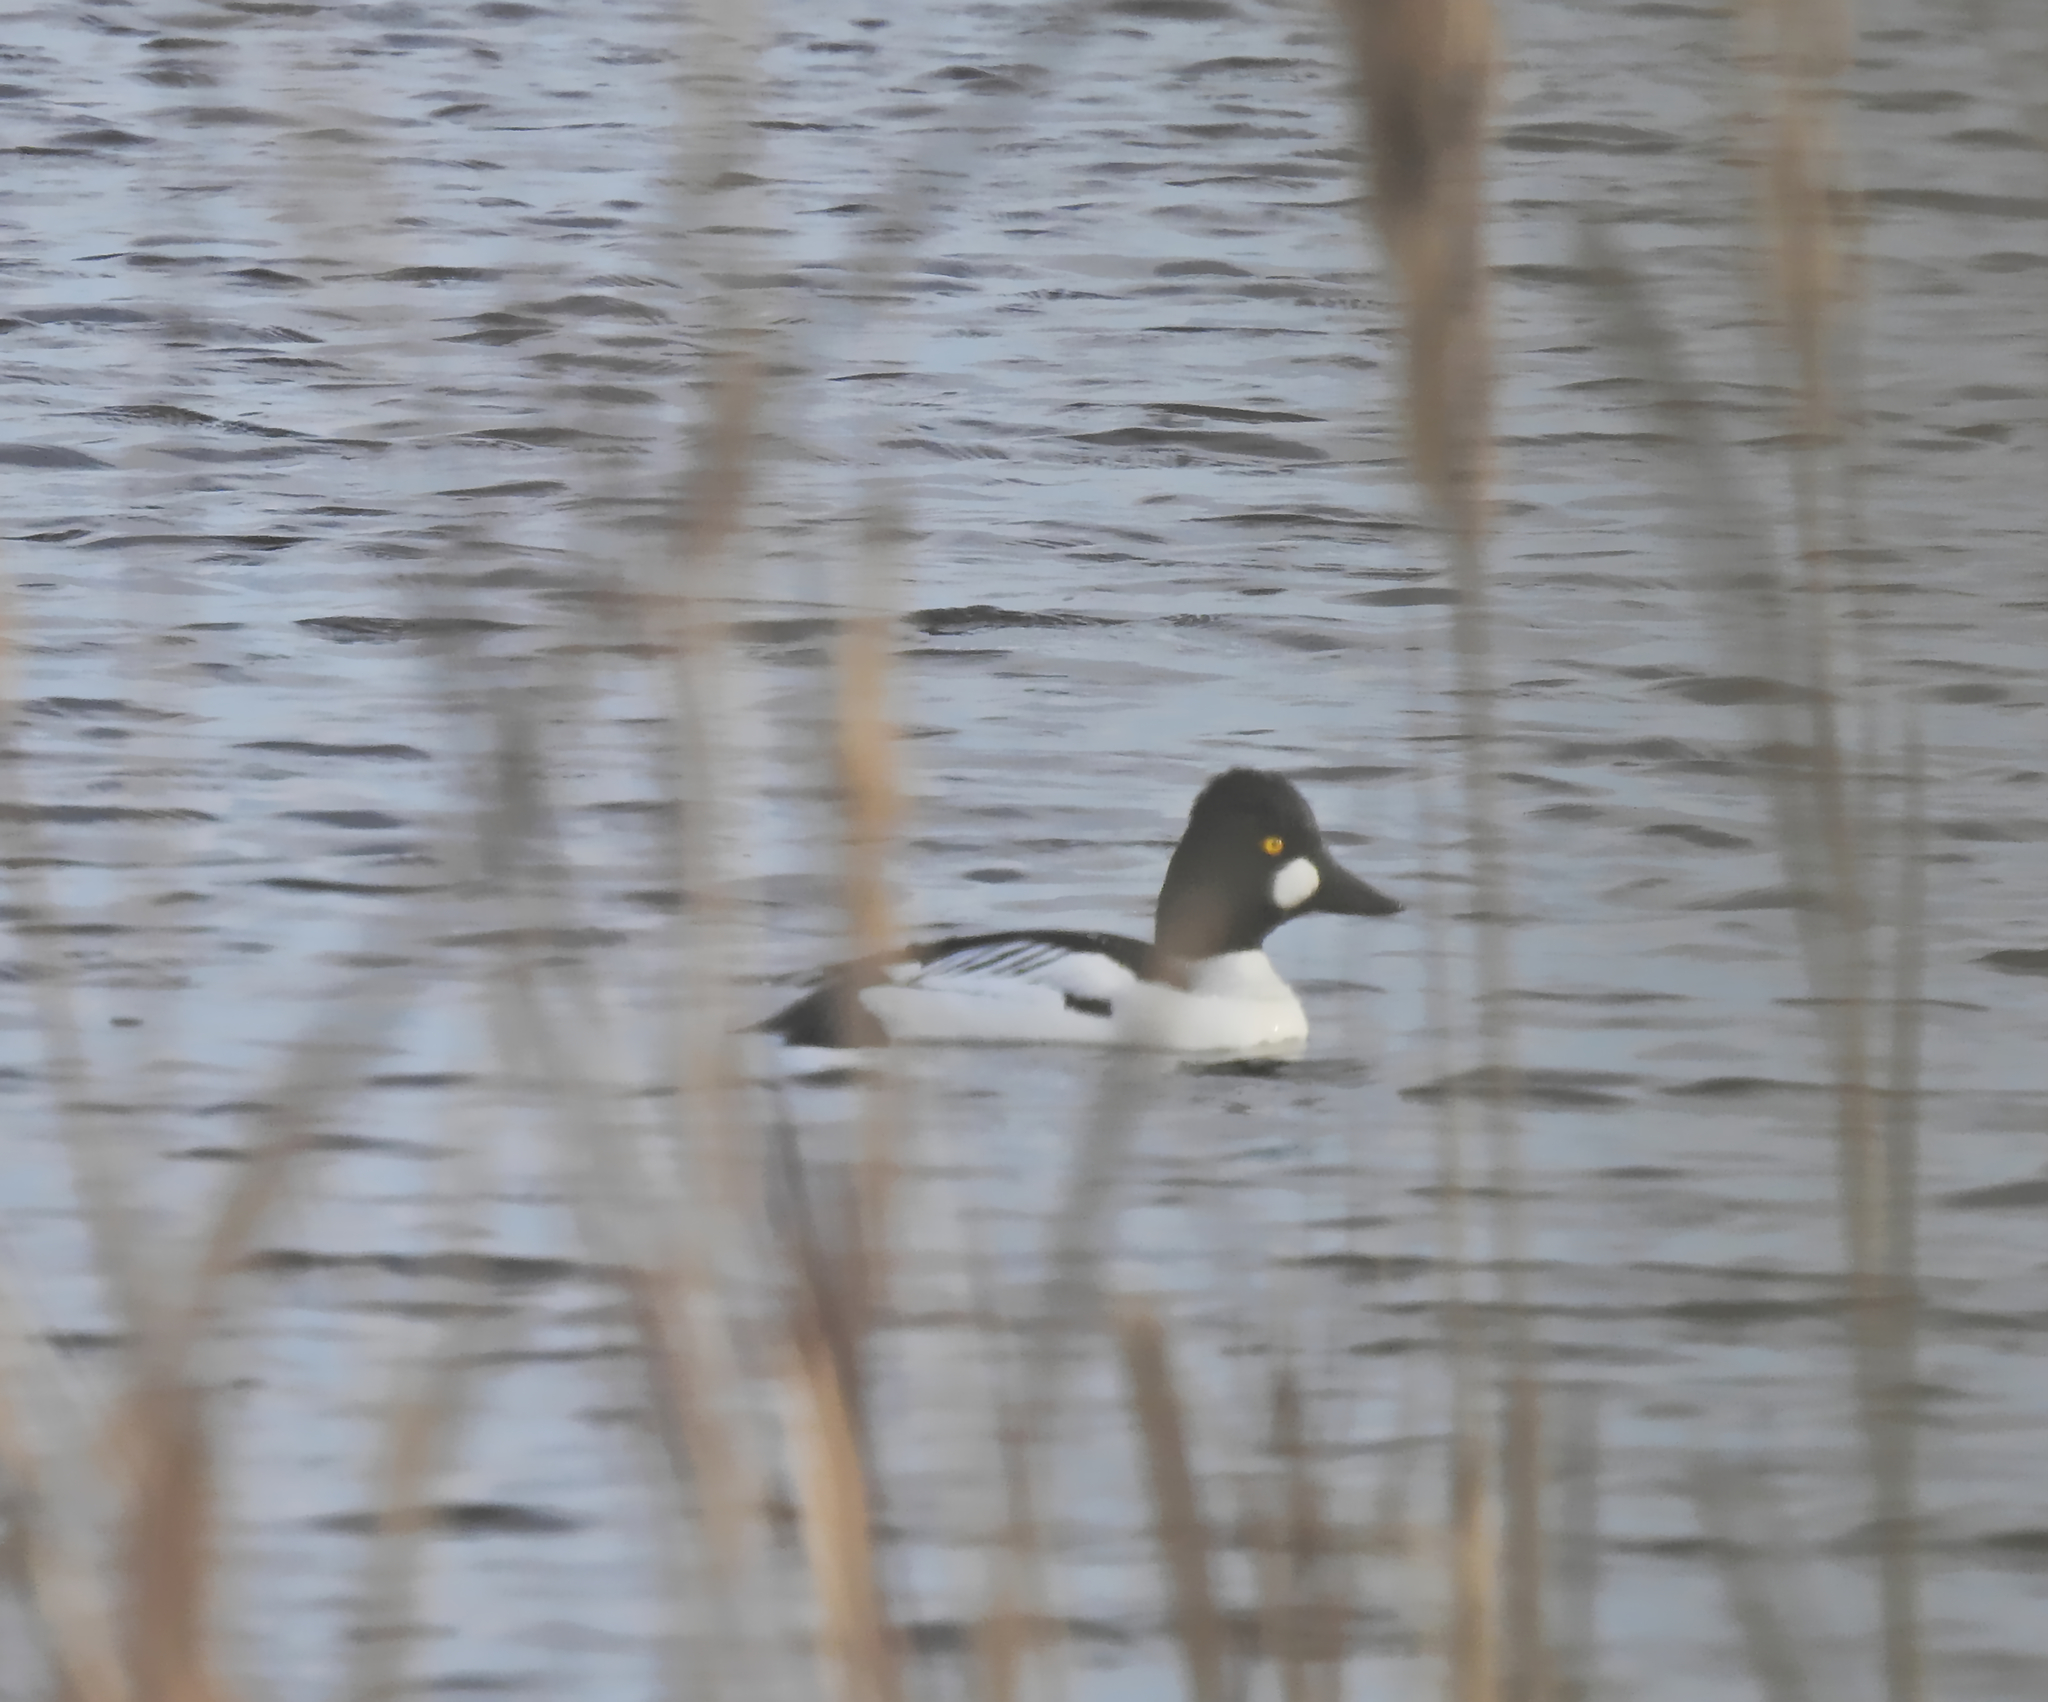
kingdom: Animalia
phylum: Chordata
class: Aves
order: Anseriformes
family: Anatidae
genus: Bucephala
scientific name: Bucephala clangula
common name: Common goldeneye
